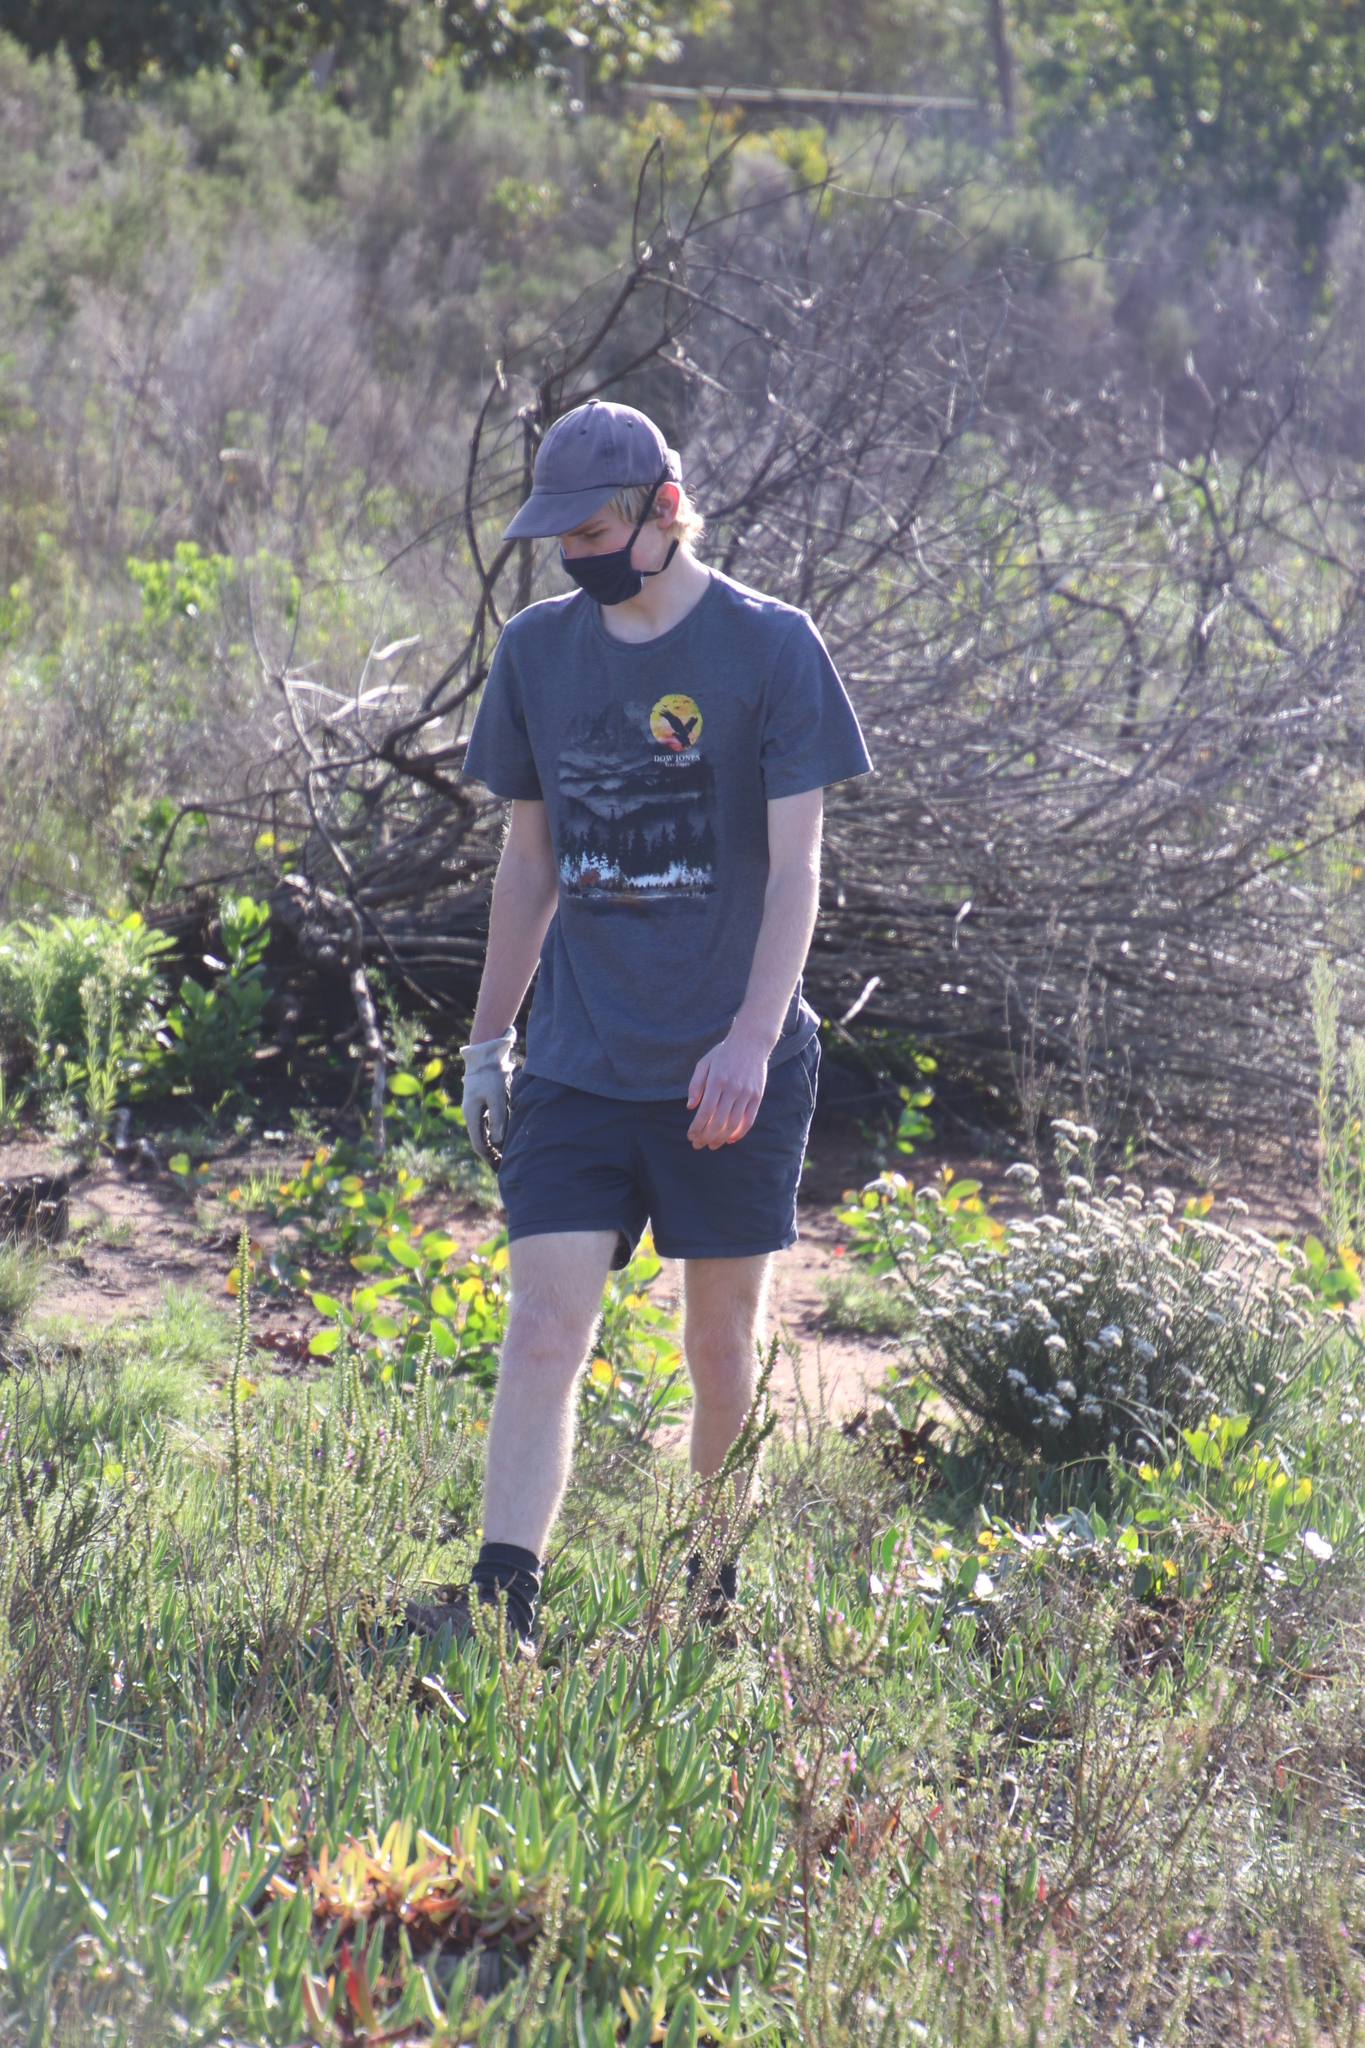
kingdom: Plantae
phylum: Tracheophyta
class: Magnoliopsida
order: Caryophyllales
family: Aizoaceae
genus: Carpobrotus
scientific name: Carpobrotus edulis
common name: Hottentot-fig
